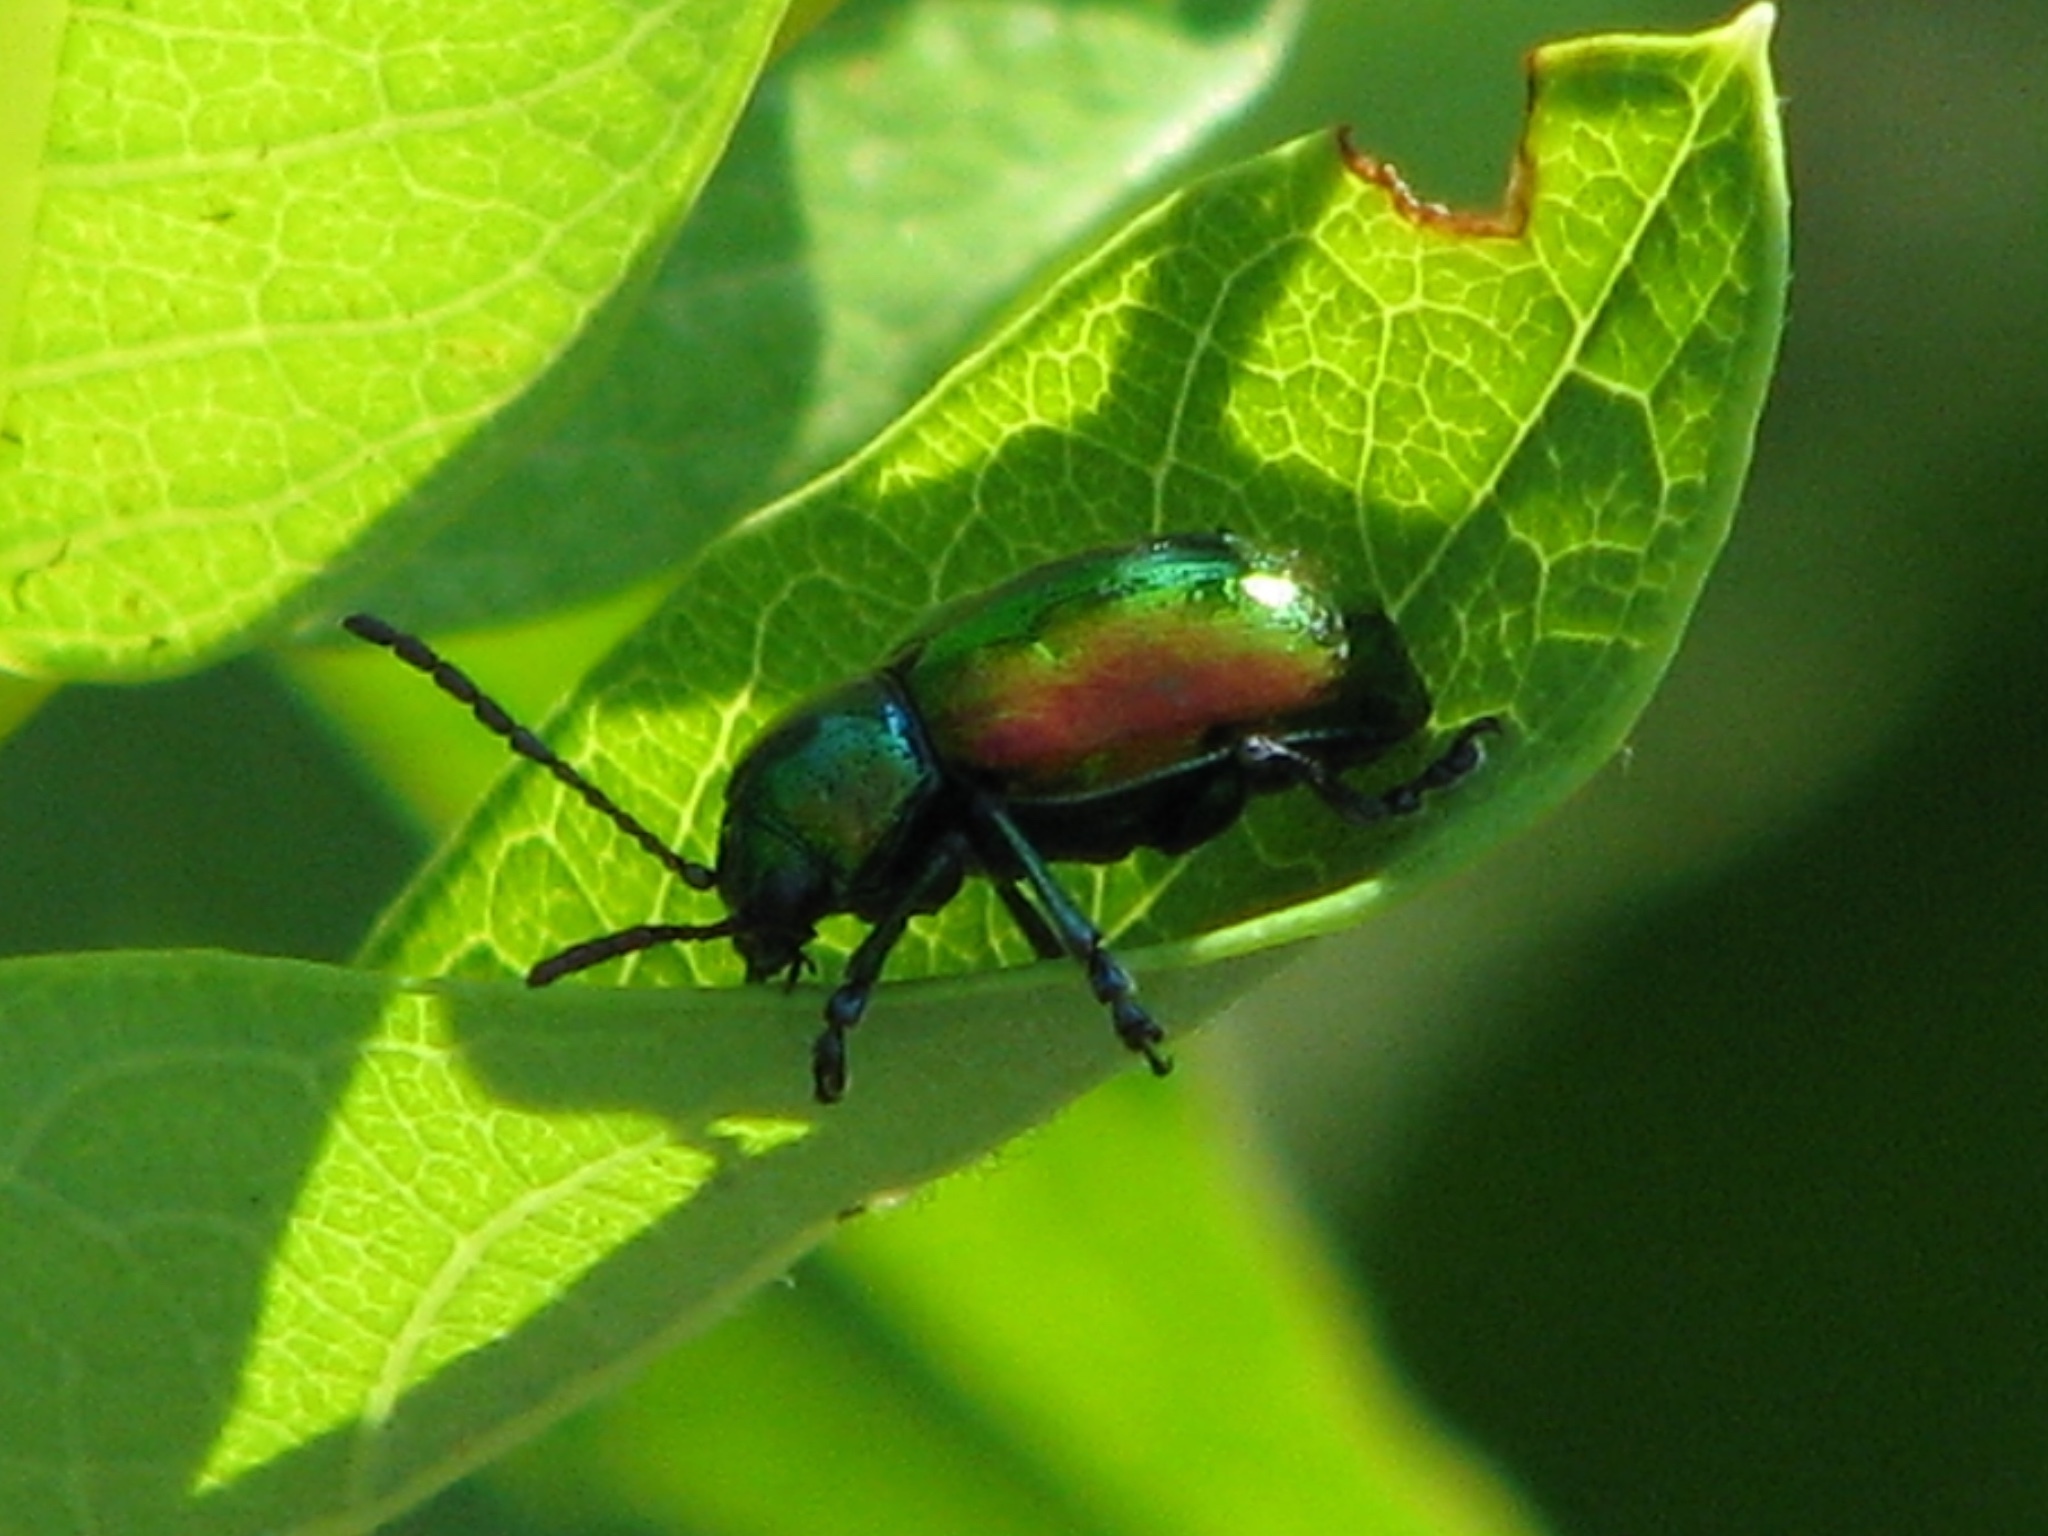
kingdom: Animalia
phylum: Arthropoda
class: Insecta
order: Coleoptera
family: Chrysomelidae
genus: Chrysochus
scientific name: Chrysochus auratus
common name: Dogbane leaf beetle
